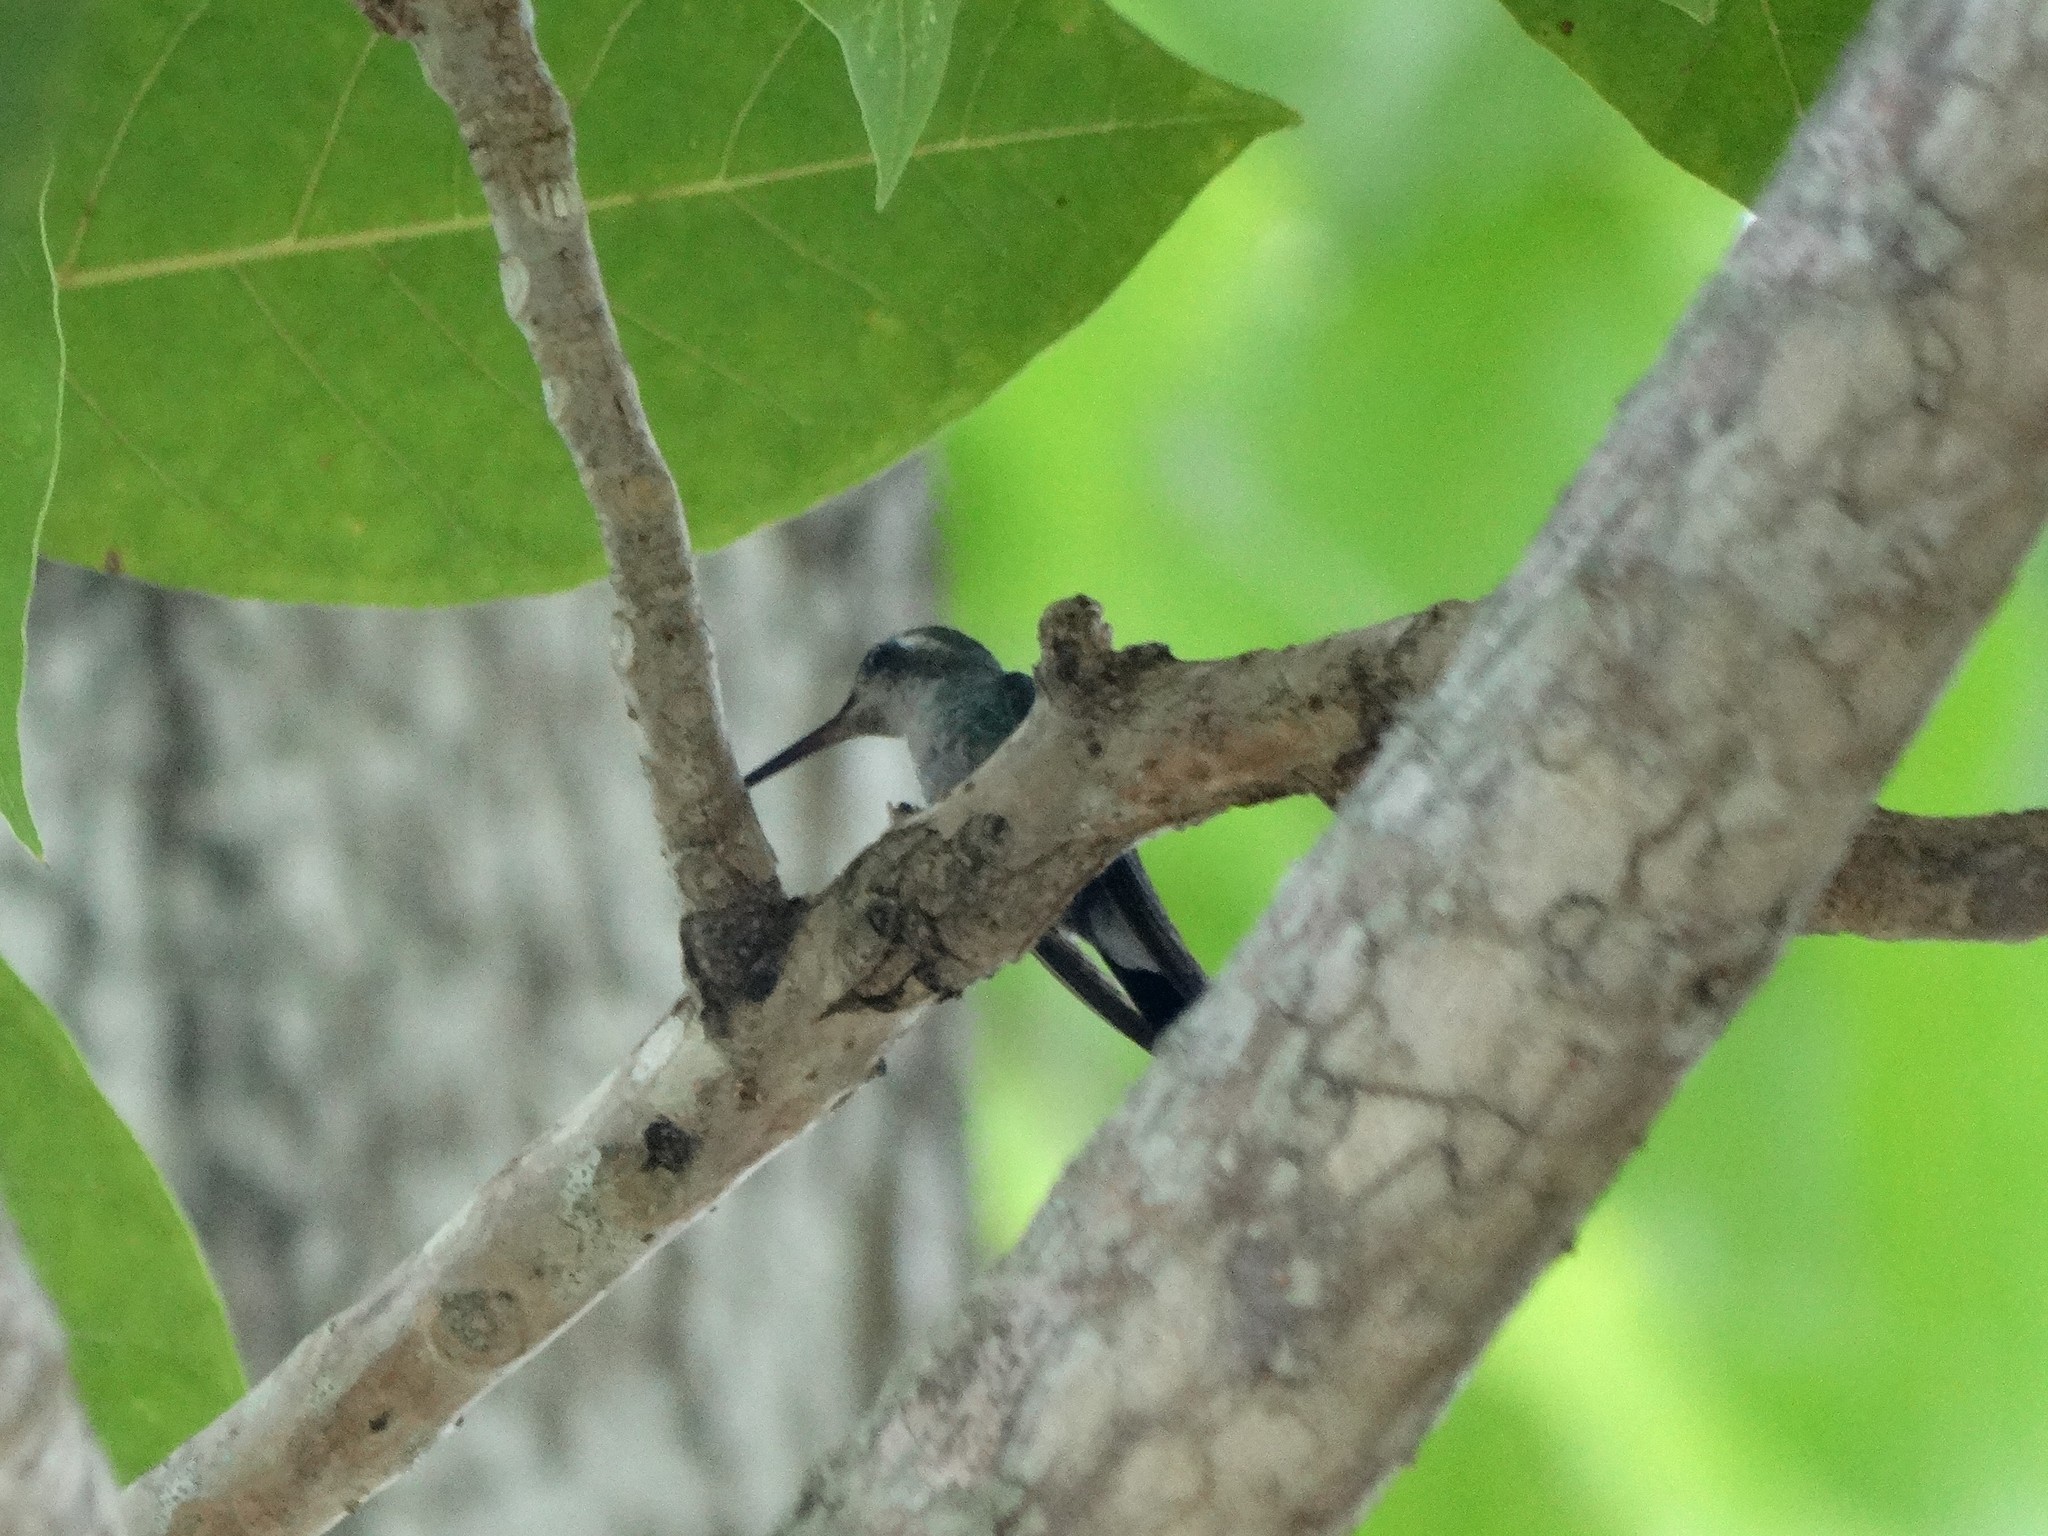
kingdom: Animalia
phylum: Chordata
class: Aves
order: Apodiformes
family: Trochilidae
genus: Riccordia
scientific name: Riccordia ricordii
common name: Cuban emerald
